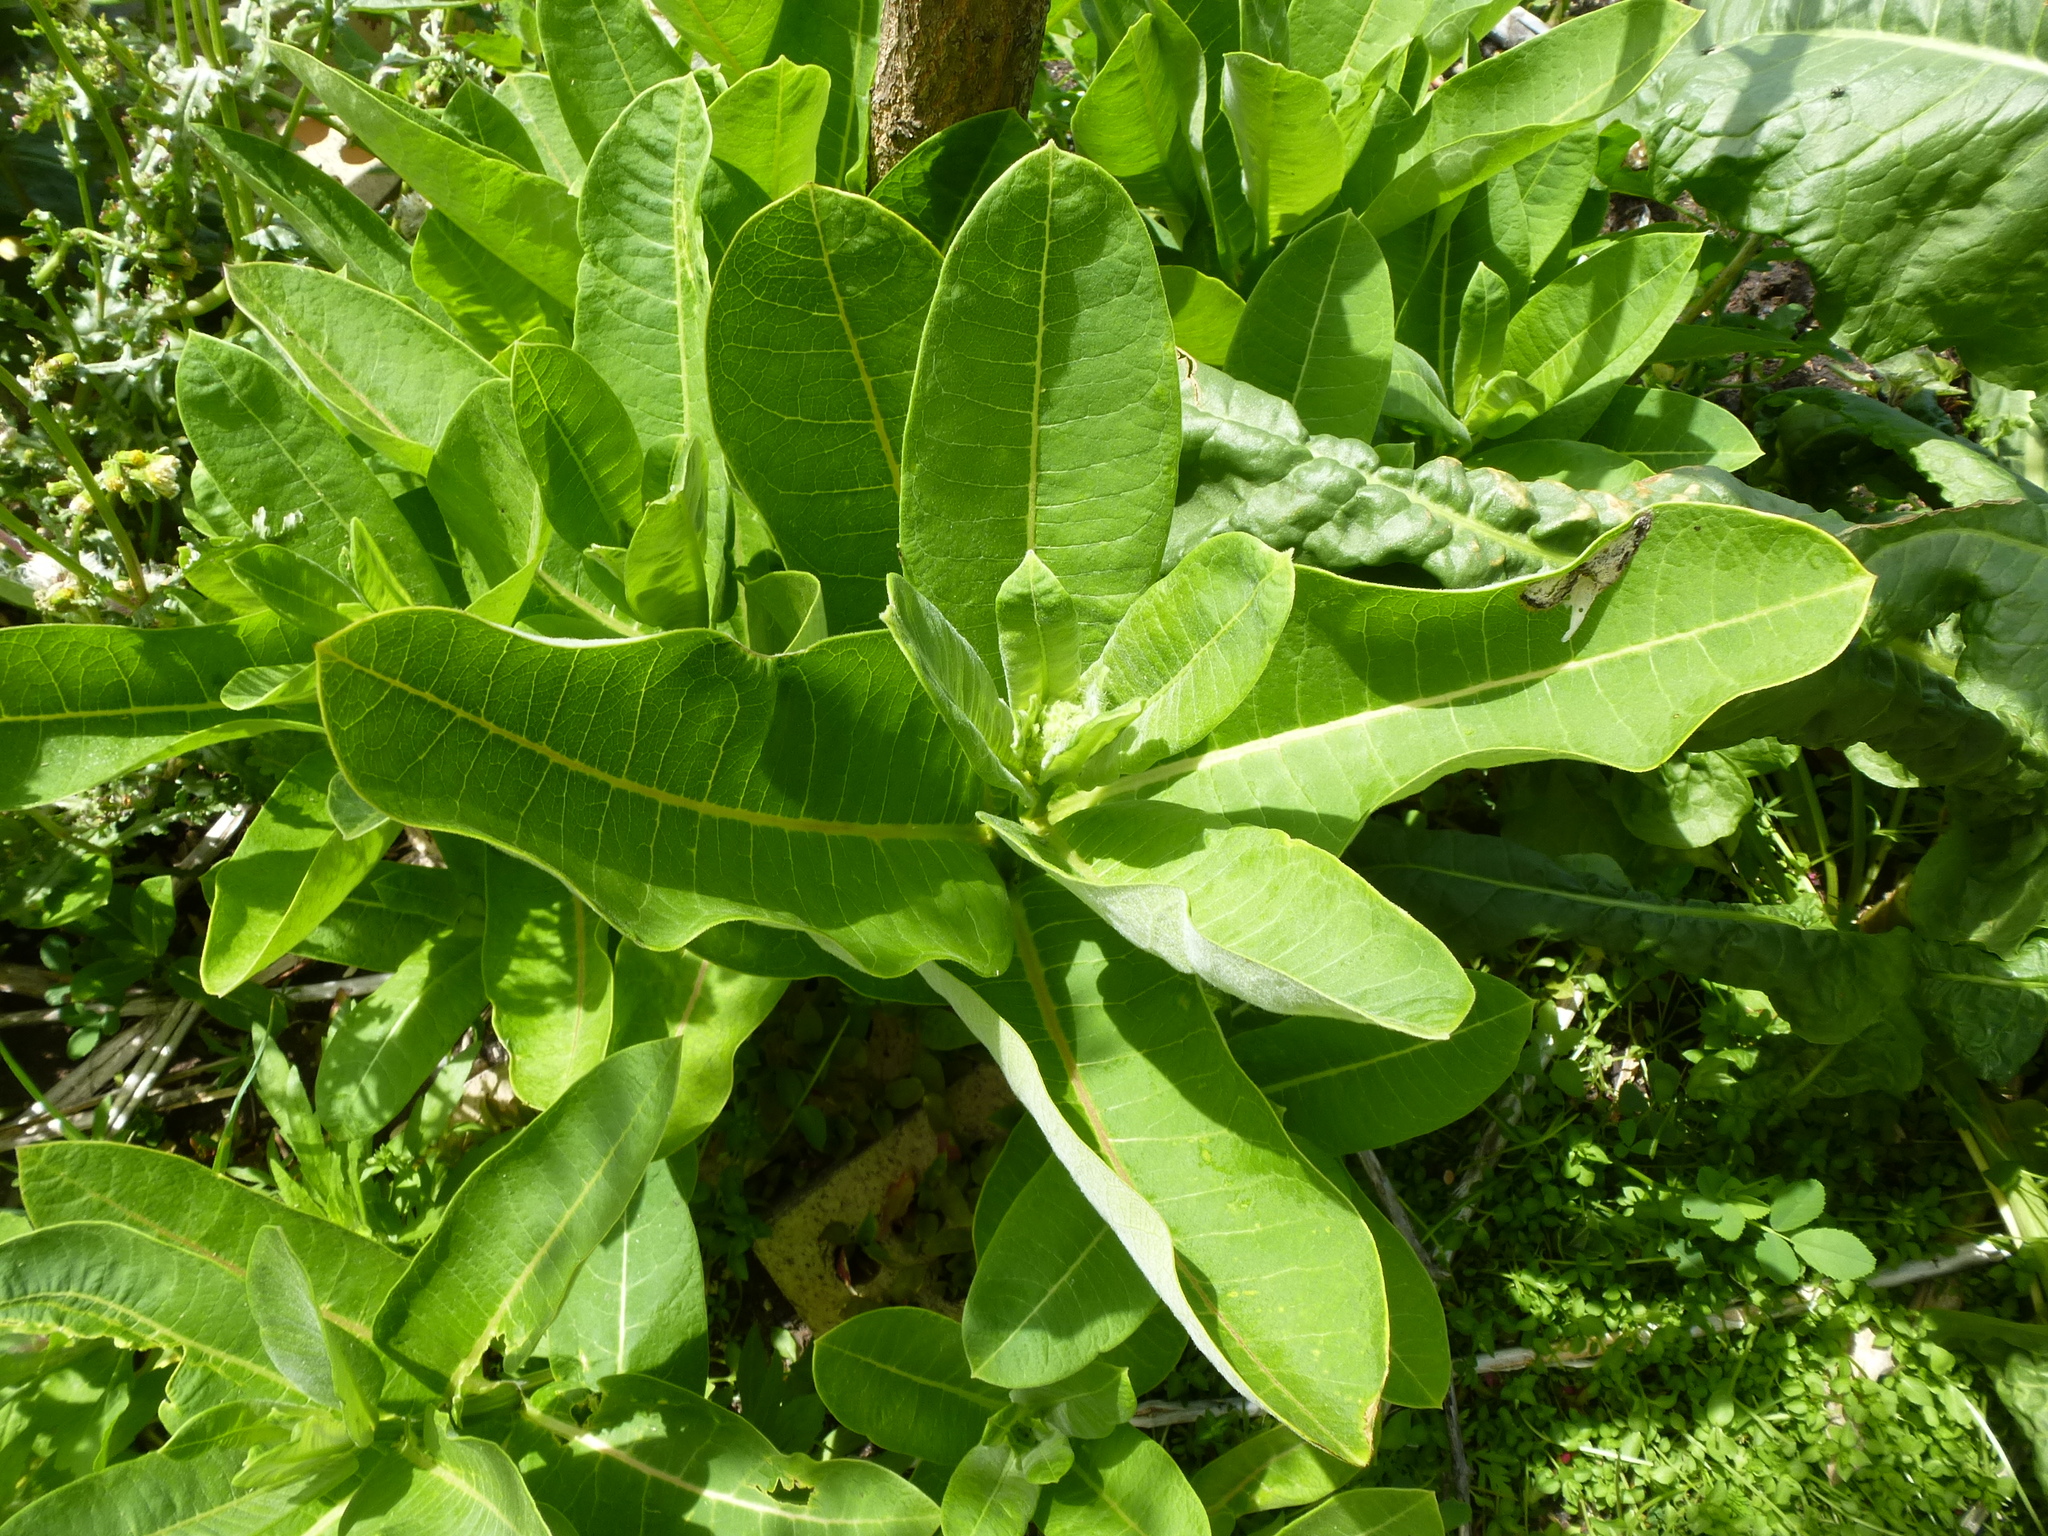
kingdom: Plantae
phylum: Tracheophyta
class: Magnoliopsida
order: Gentianales
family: Apocynaceae
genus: Asclepias
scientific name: Asclepias syriaca
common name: Common milkweed
